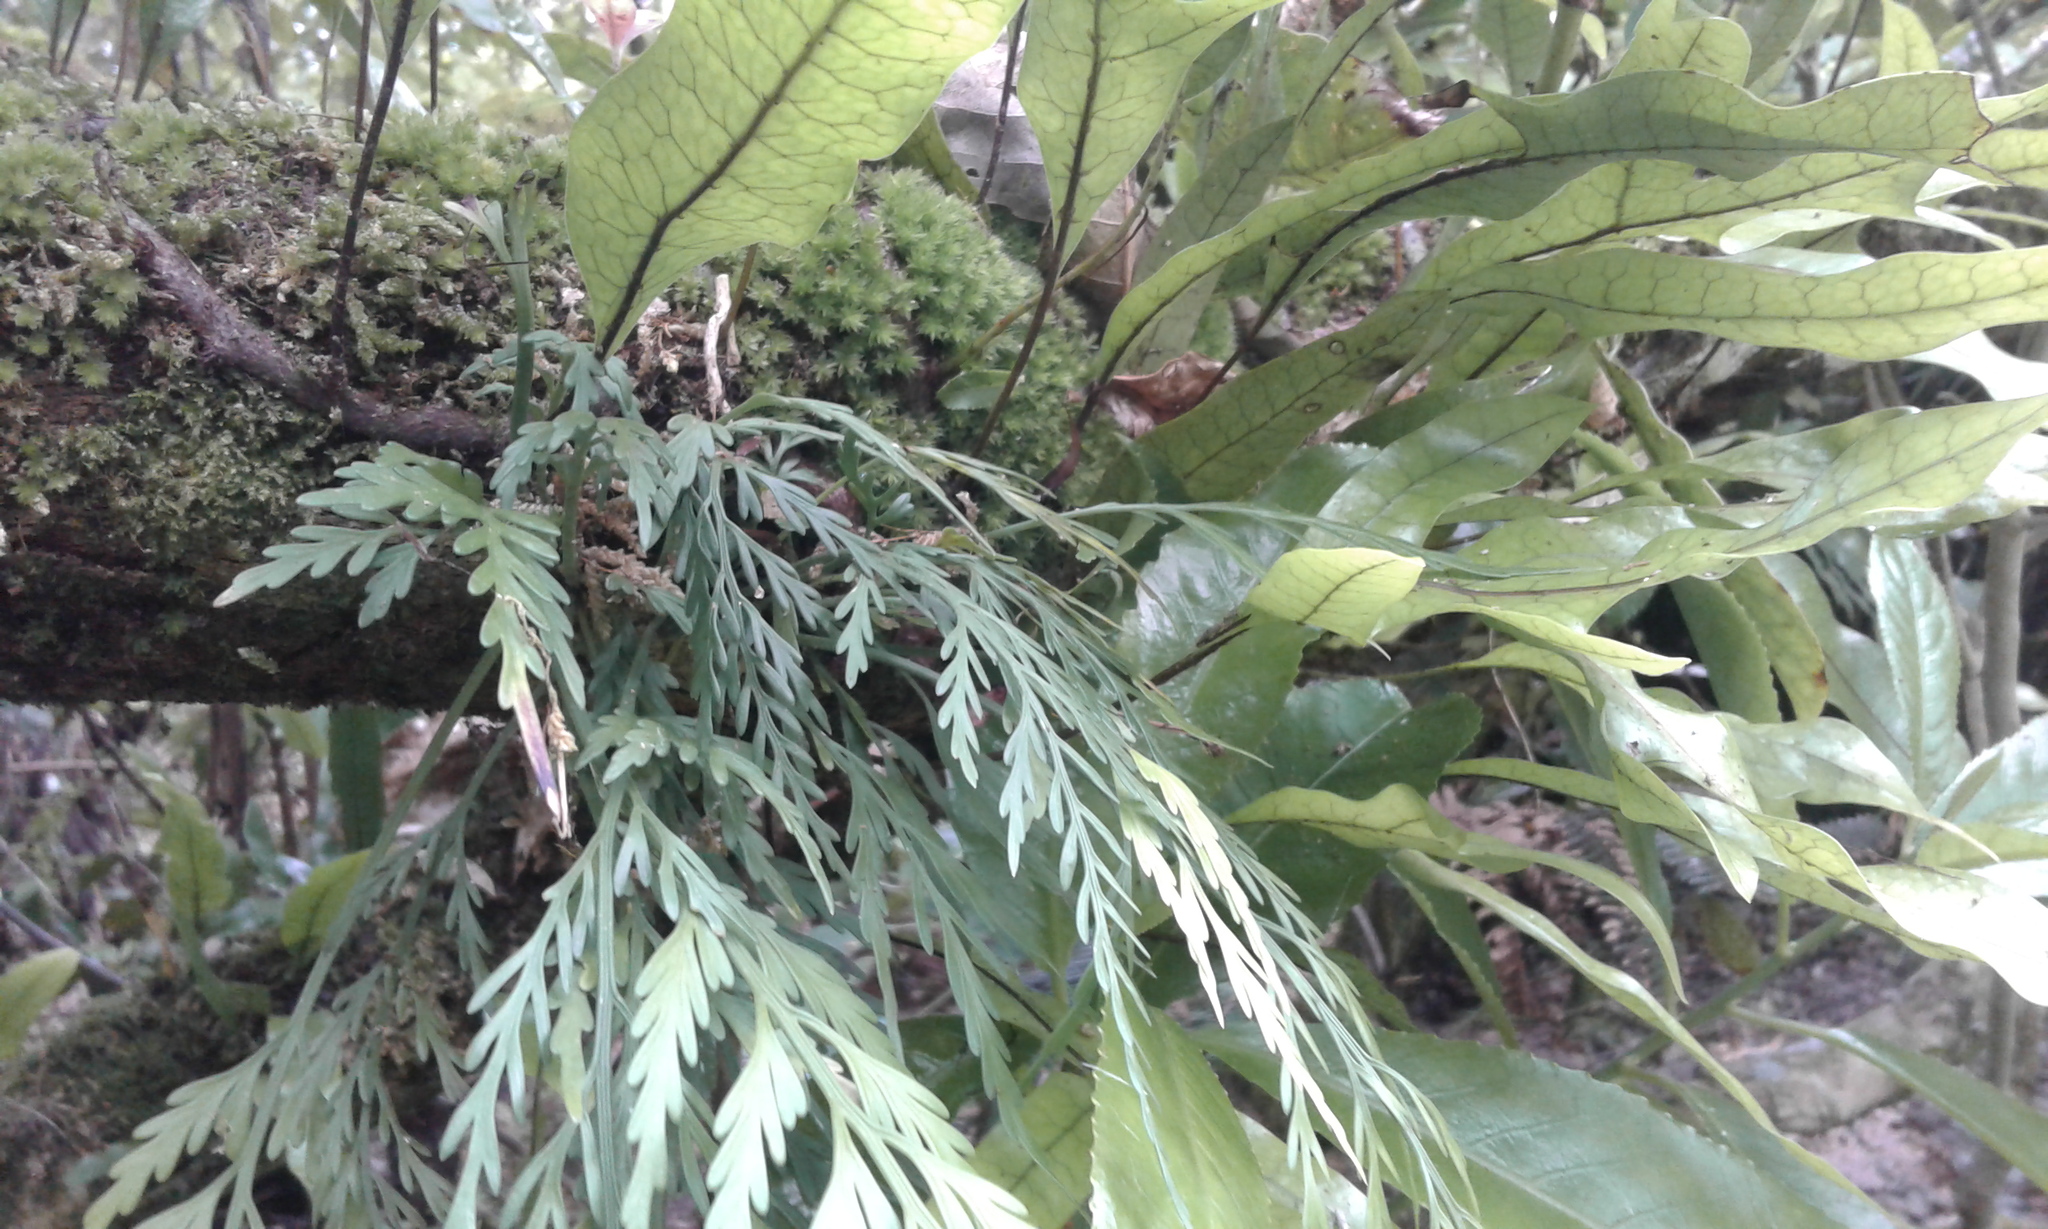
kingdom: Plantae
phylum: Tracheophyta
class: Polypodiopsida
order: Polypodiales
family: Aspleniaceae
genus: Asplenium
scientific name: Asplenium flaccidum
